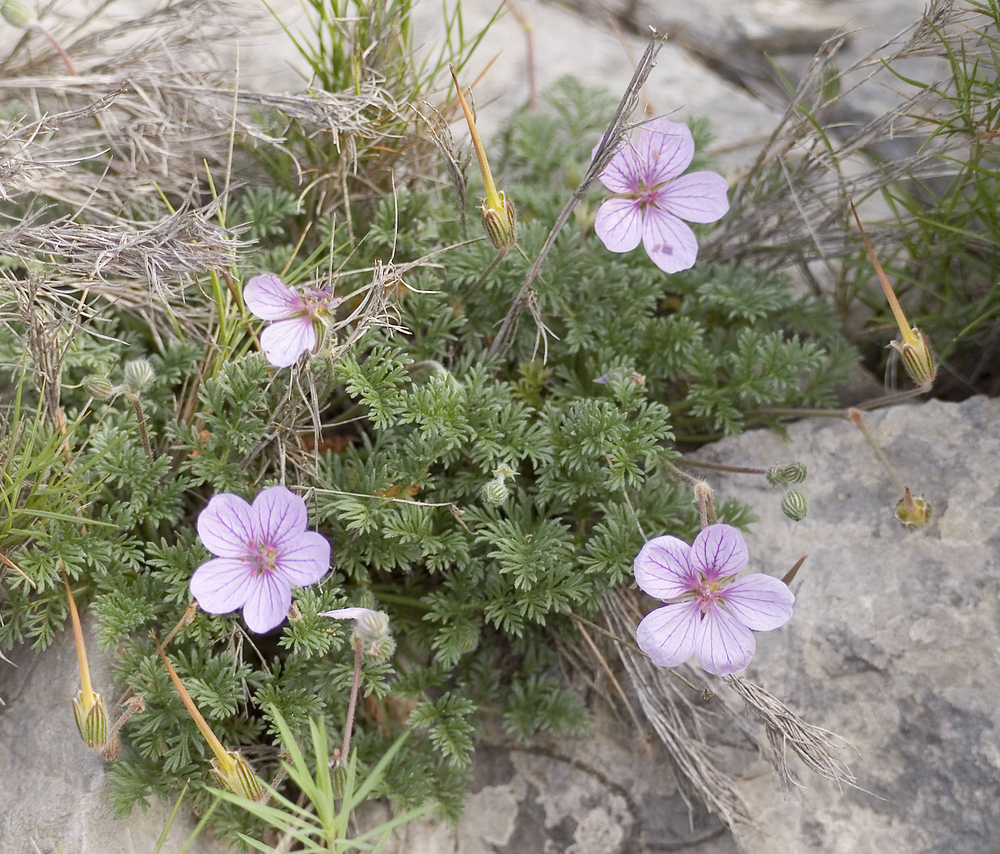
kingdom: Plantae
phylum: Tracheophyta
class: Magnoliopsida
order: Geraniales
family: Geraniaceae
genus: Erodium
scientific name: Erodium foetidum
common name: Rock stork's-bill
